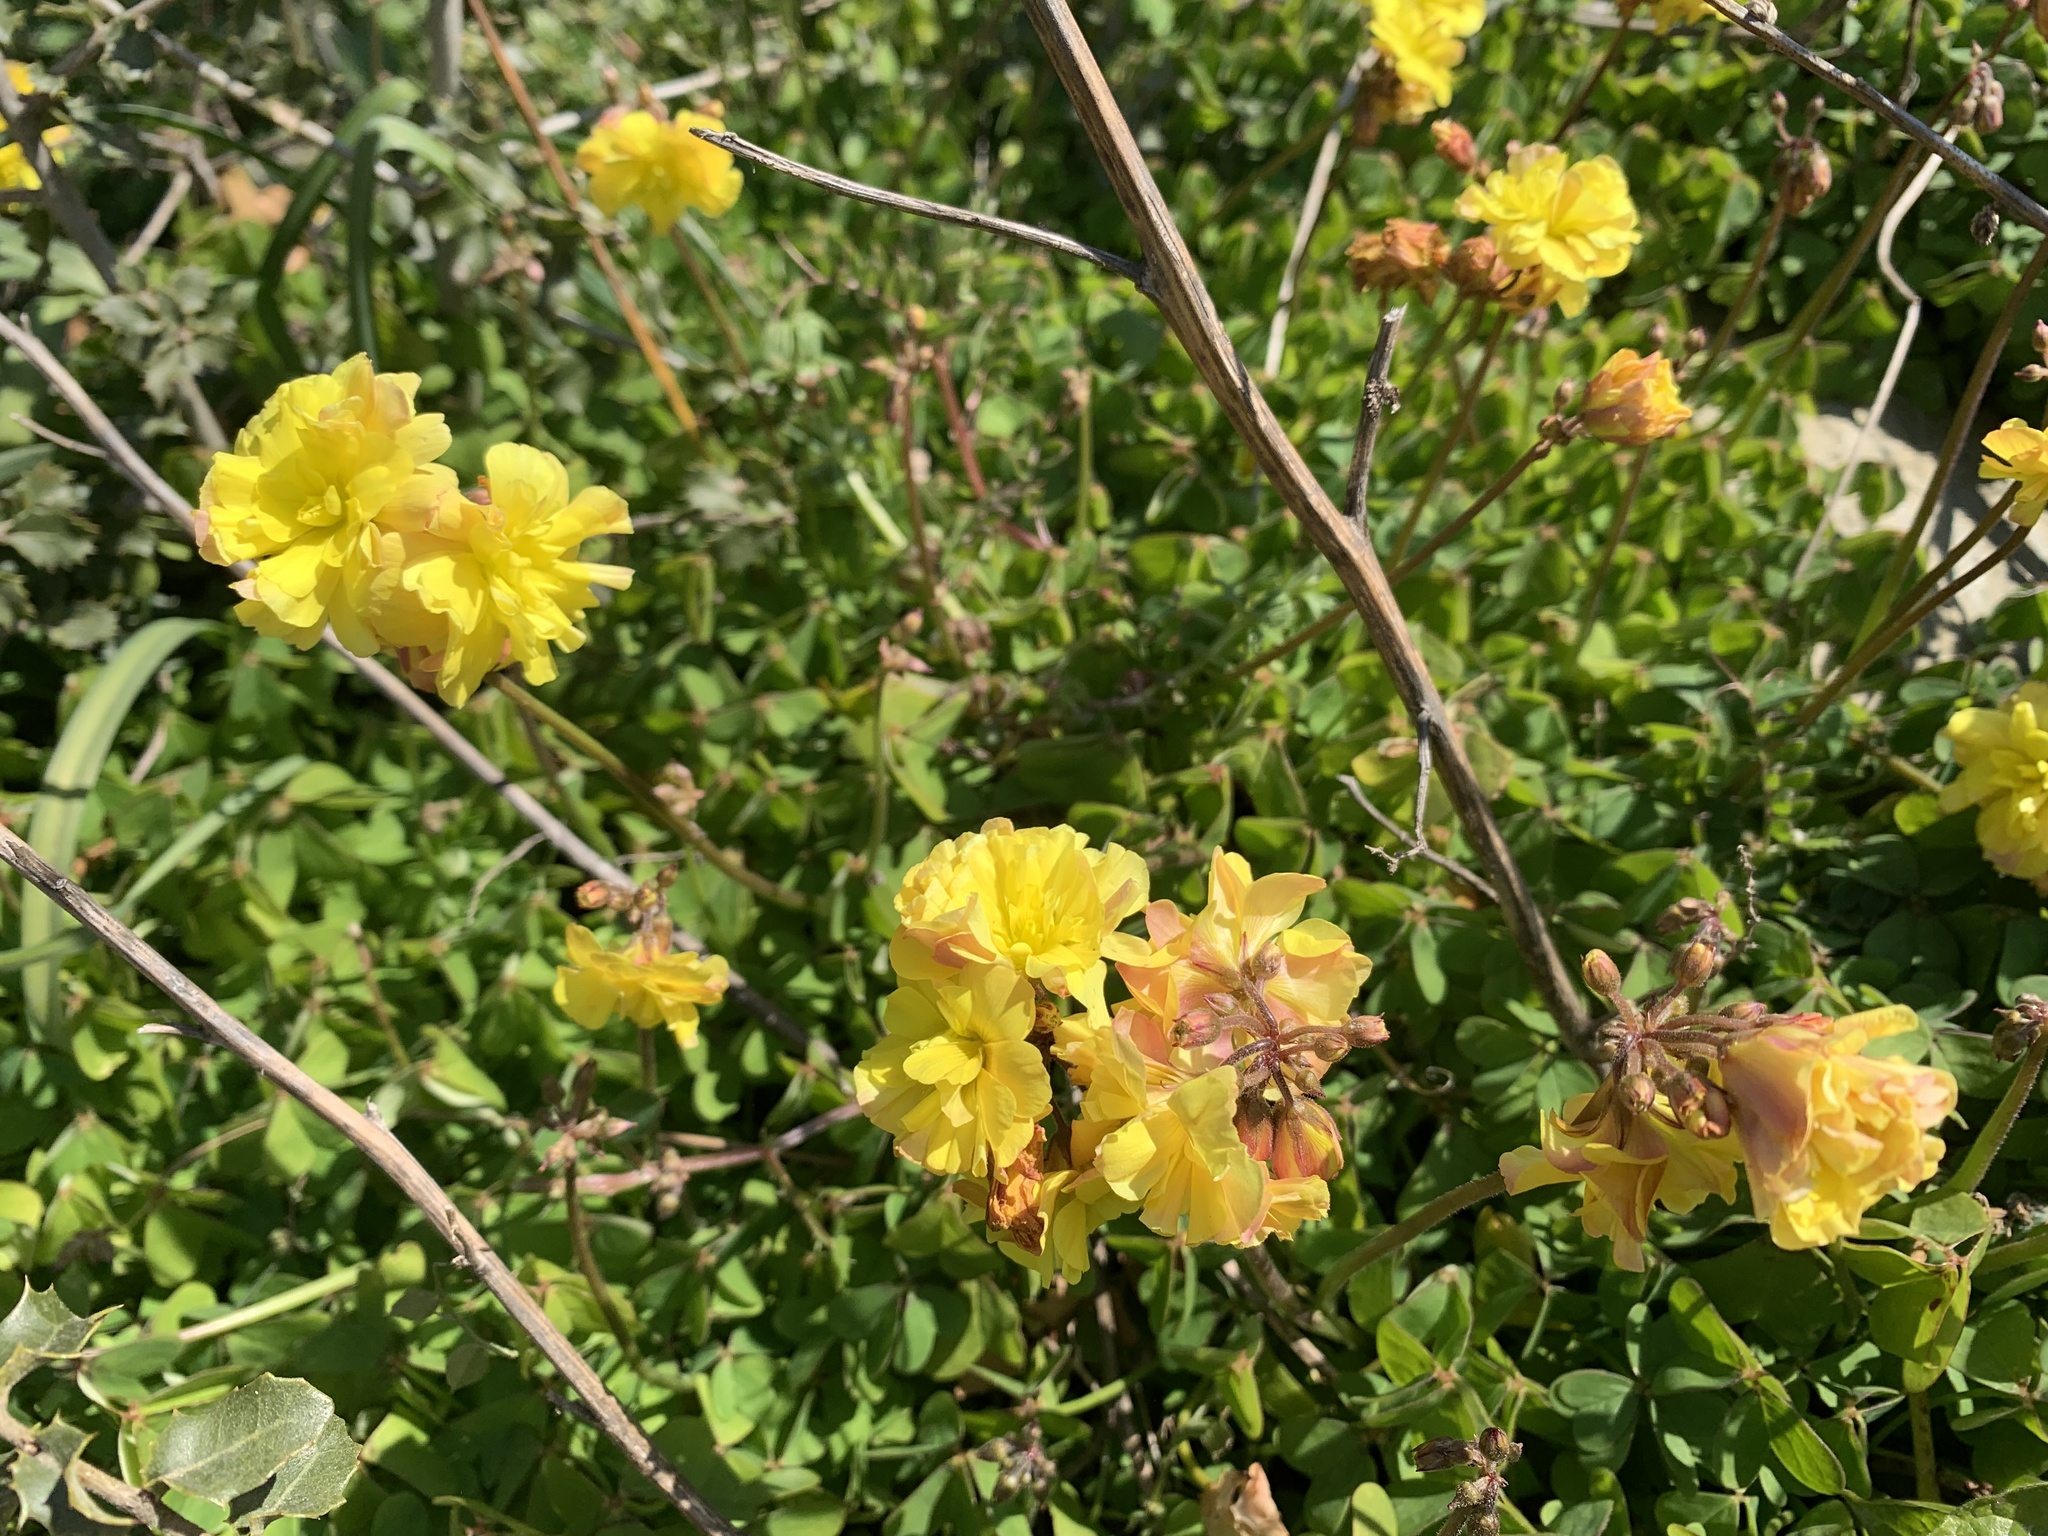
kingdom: Plantae
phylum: Tracheophyta
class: Magnoliopsida
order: Oxalidales
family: Oxalidaceae
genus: Oxalis
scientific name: Oxalis pes-caprae
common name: Bermuda-buttercup
